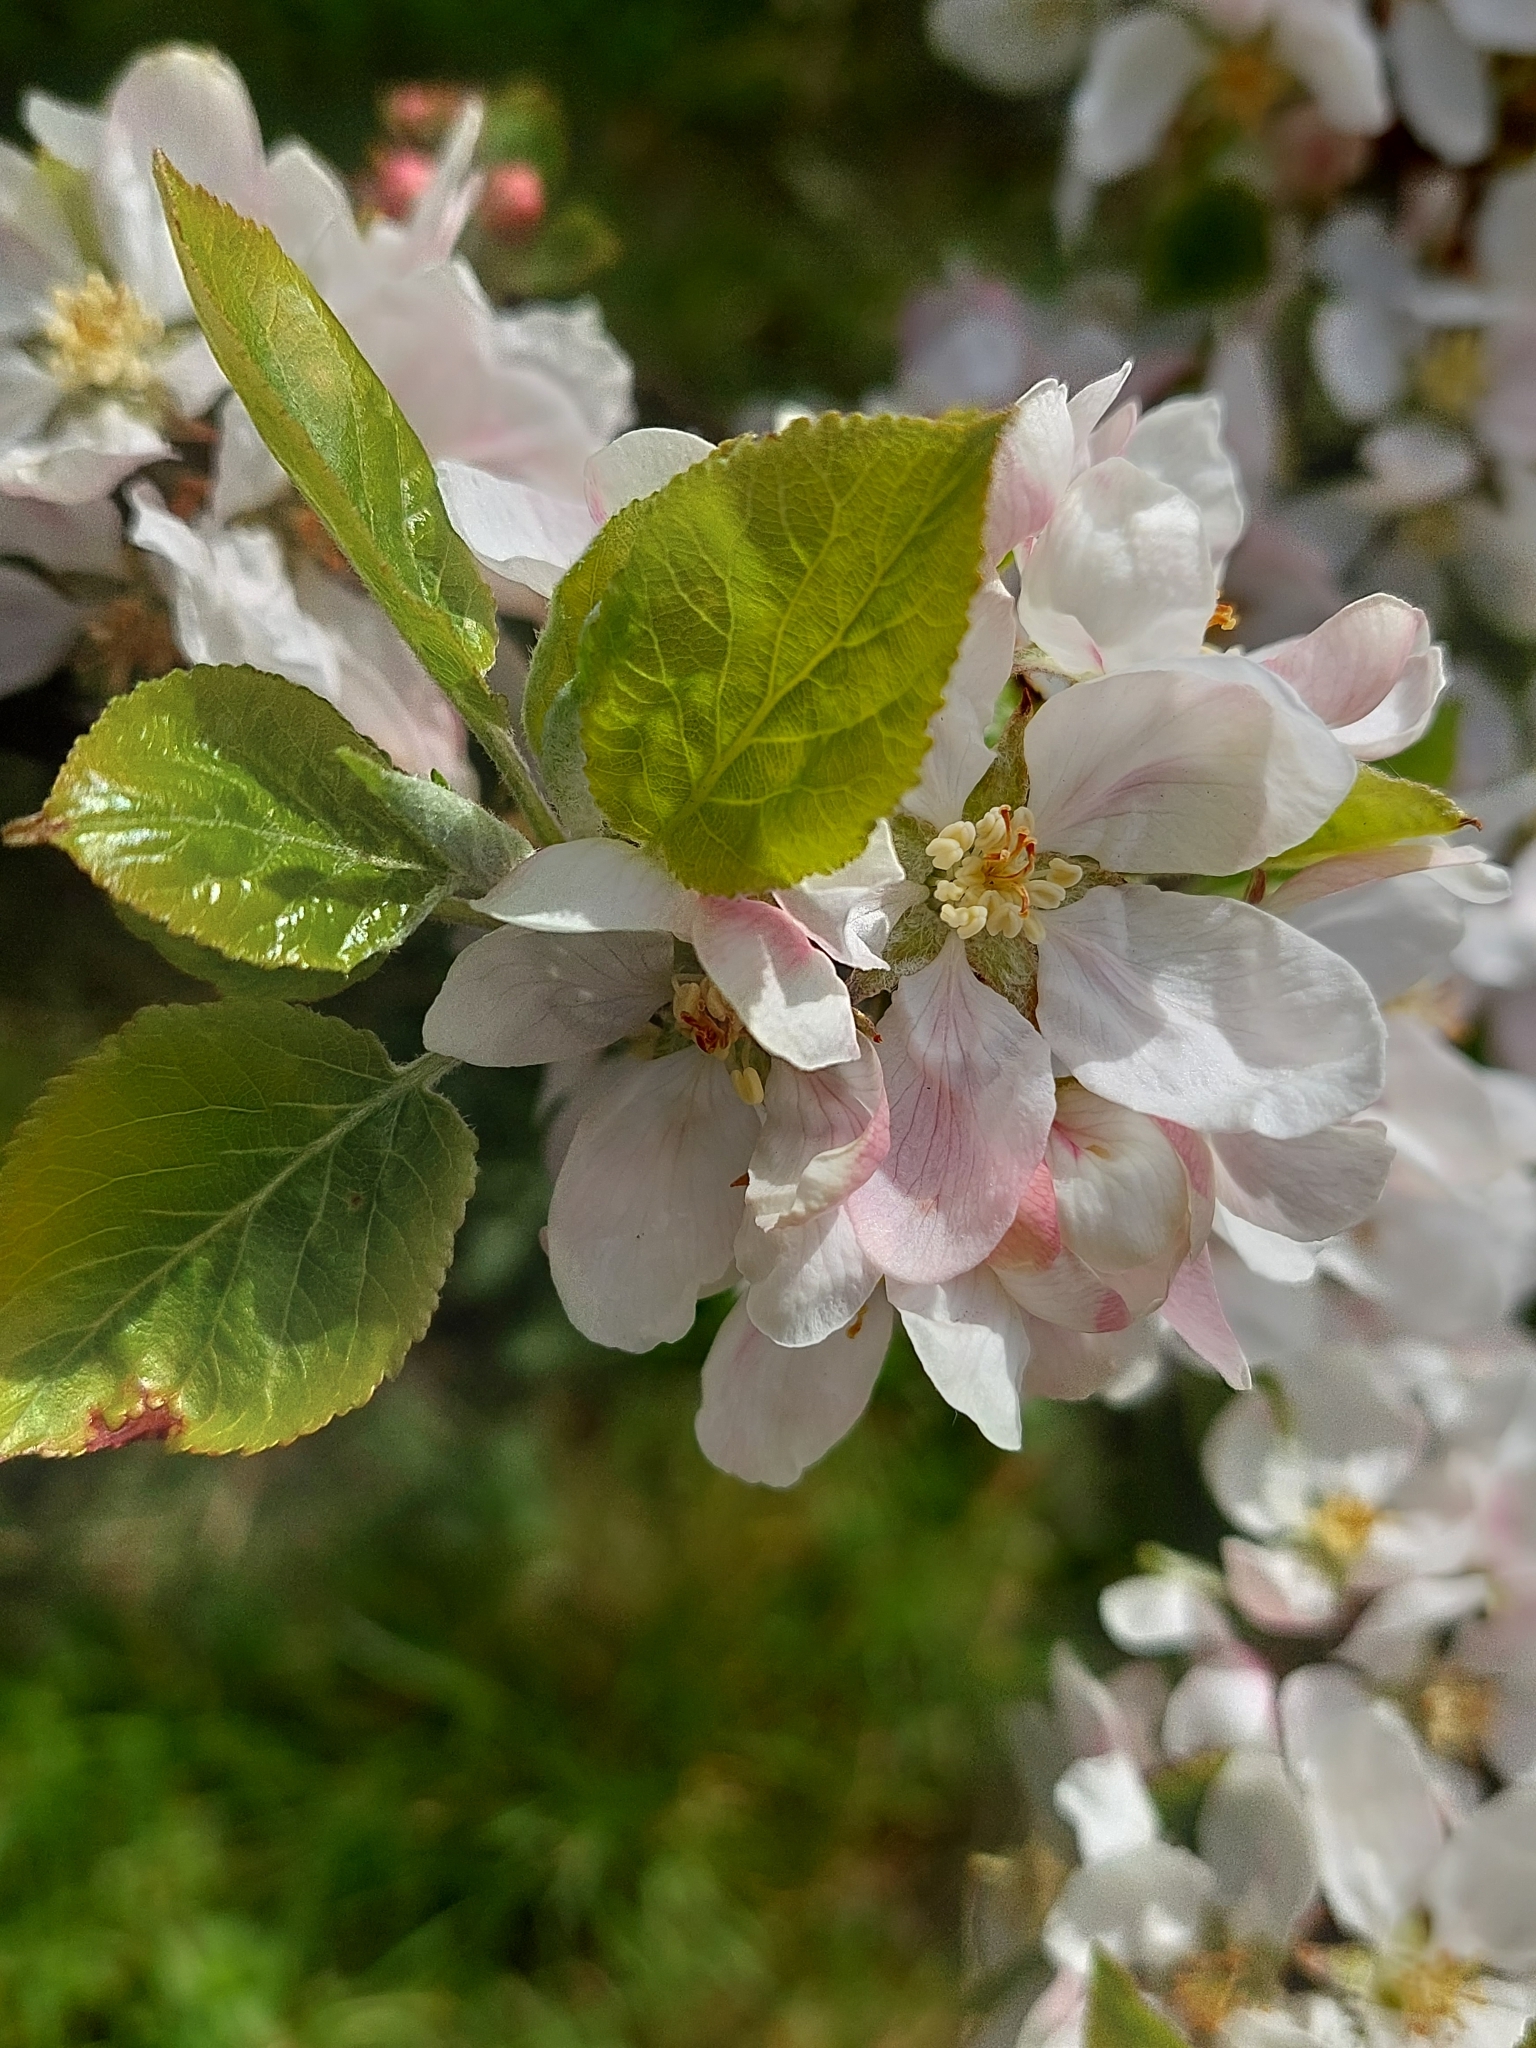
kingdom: Plantae
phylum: Tracheophyta
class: Magnoliopsida
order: Rosales
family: Rosaceae
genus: Malus
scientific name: Malus domestica
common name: Apple
